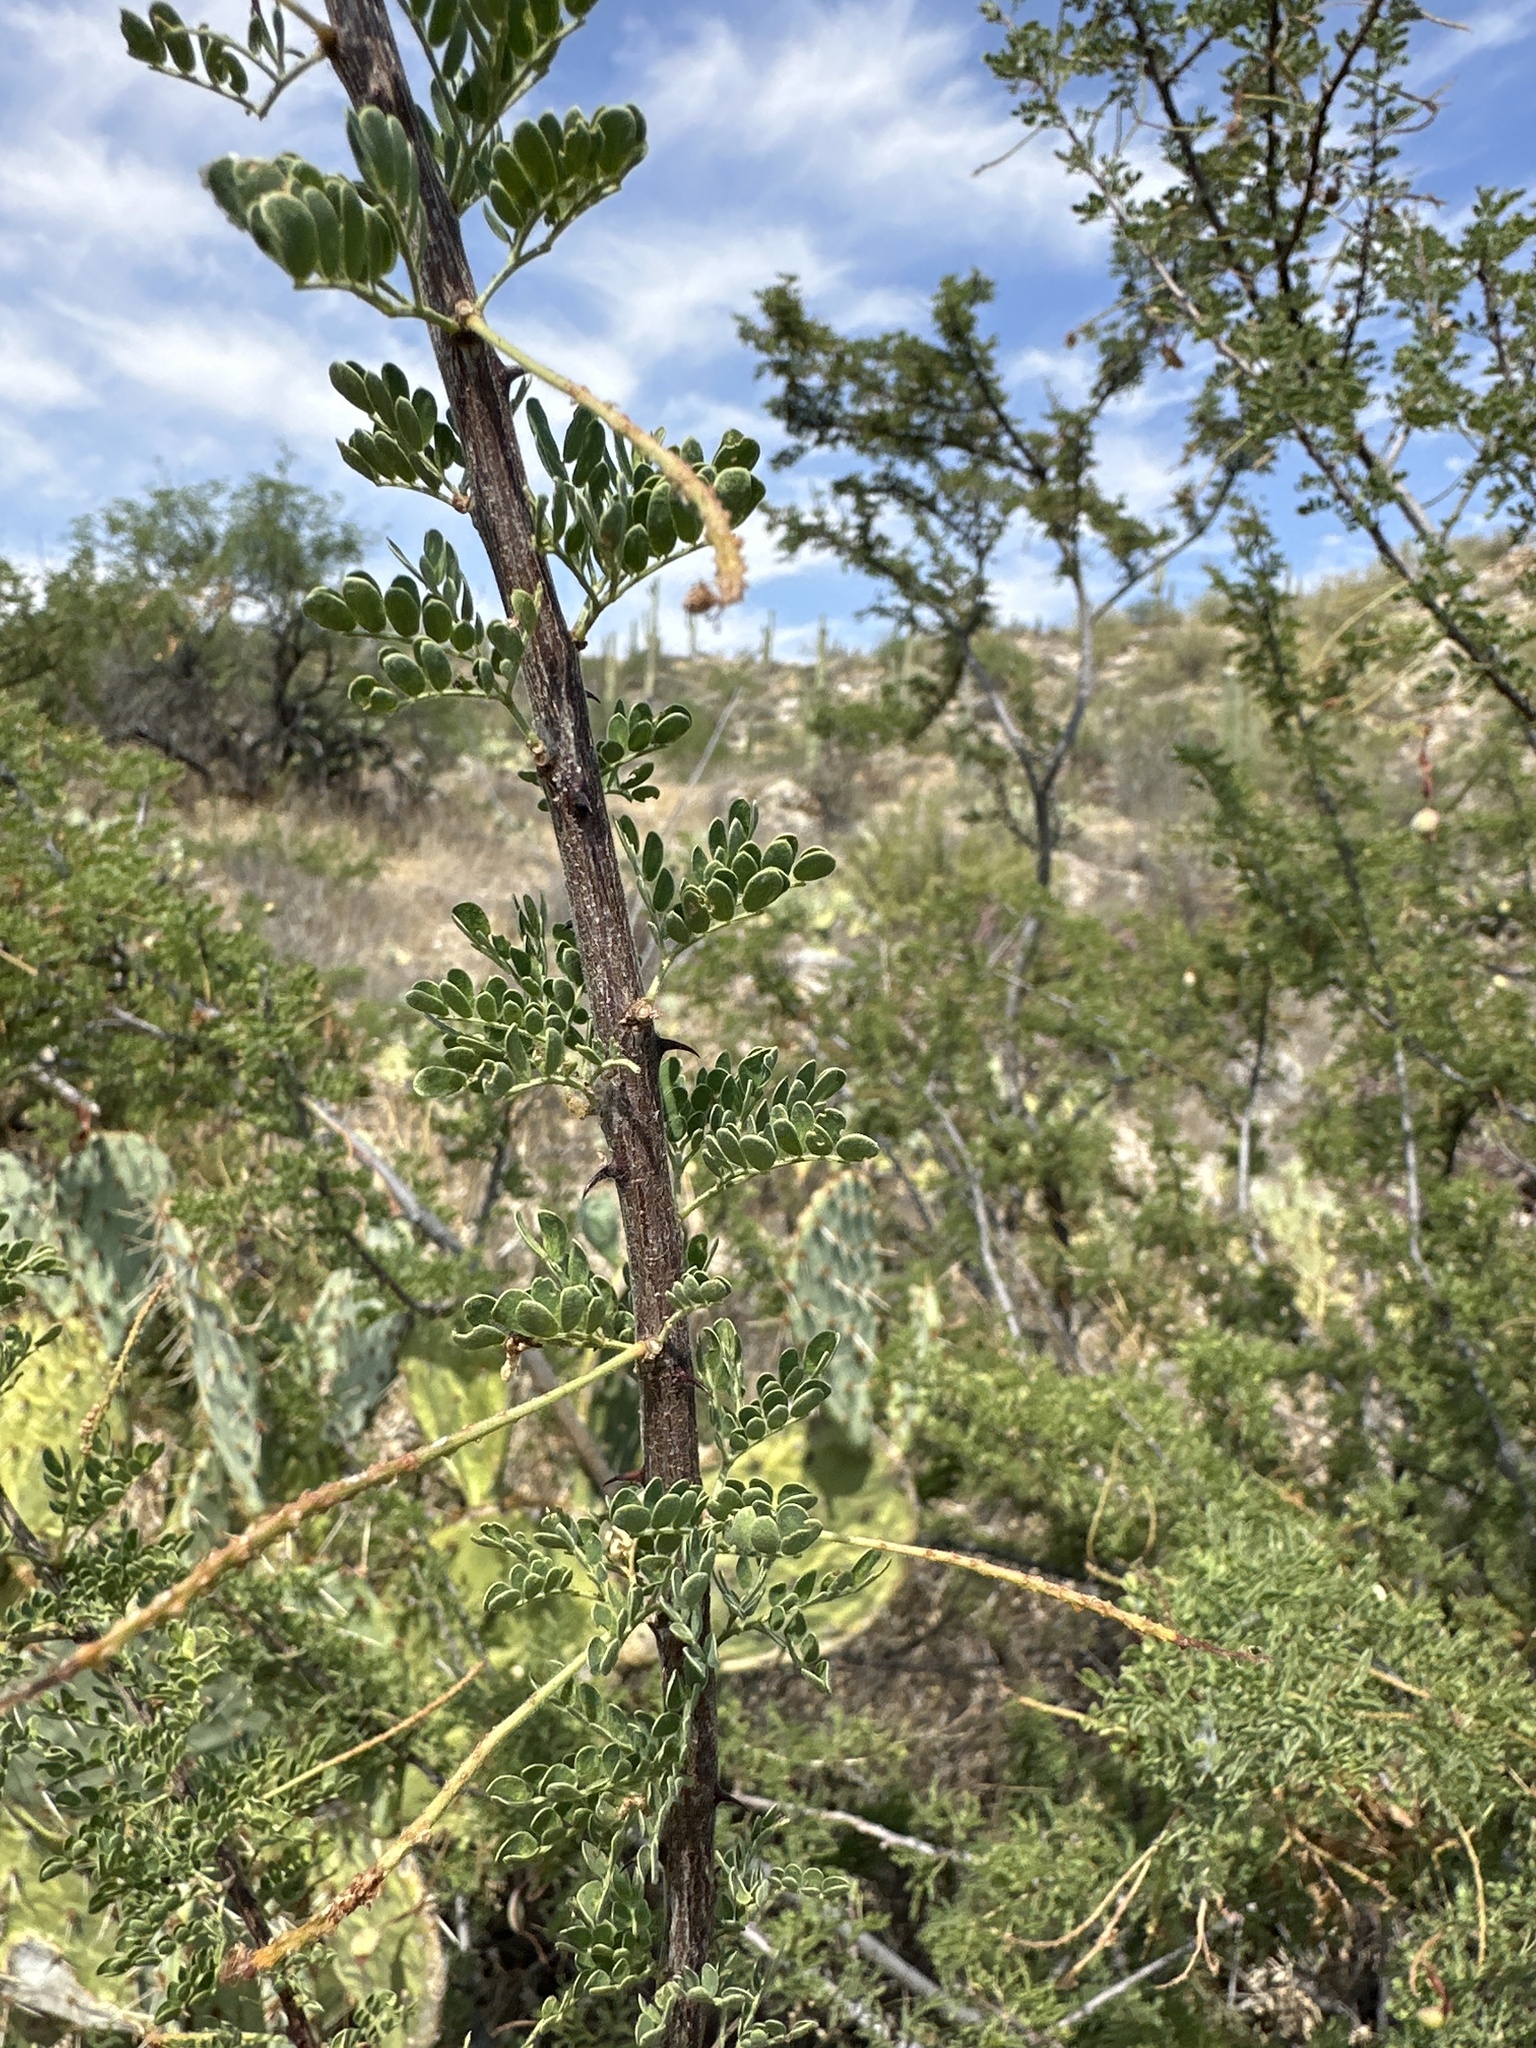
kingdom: Plantae
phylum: Tracheophyta
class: Magnoliopsida
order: Fabales
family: Fabaceae
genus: Senegalia
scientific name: Senegalia greggii
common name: Texas-mimosa
